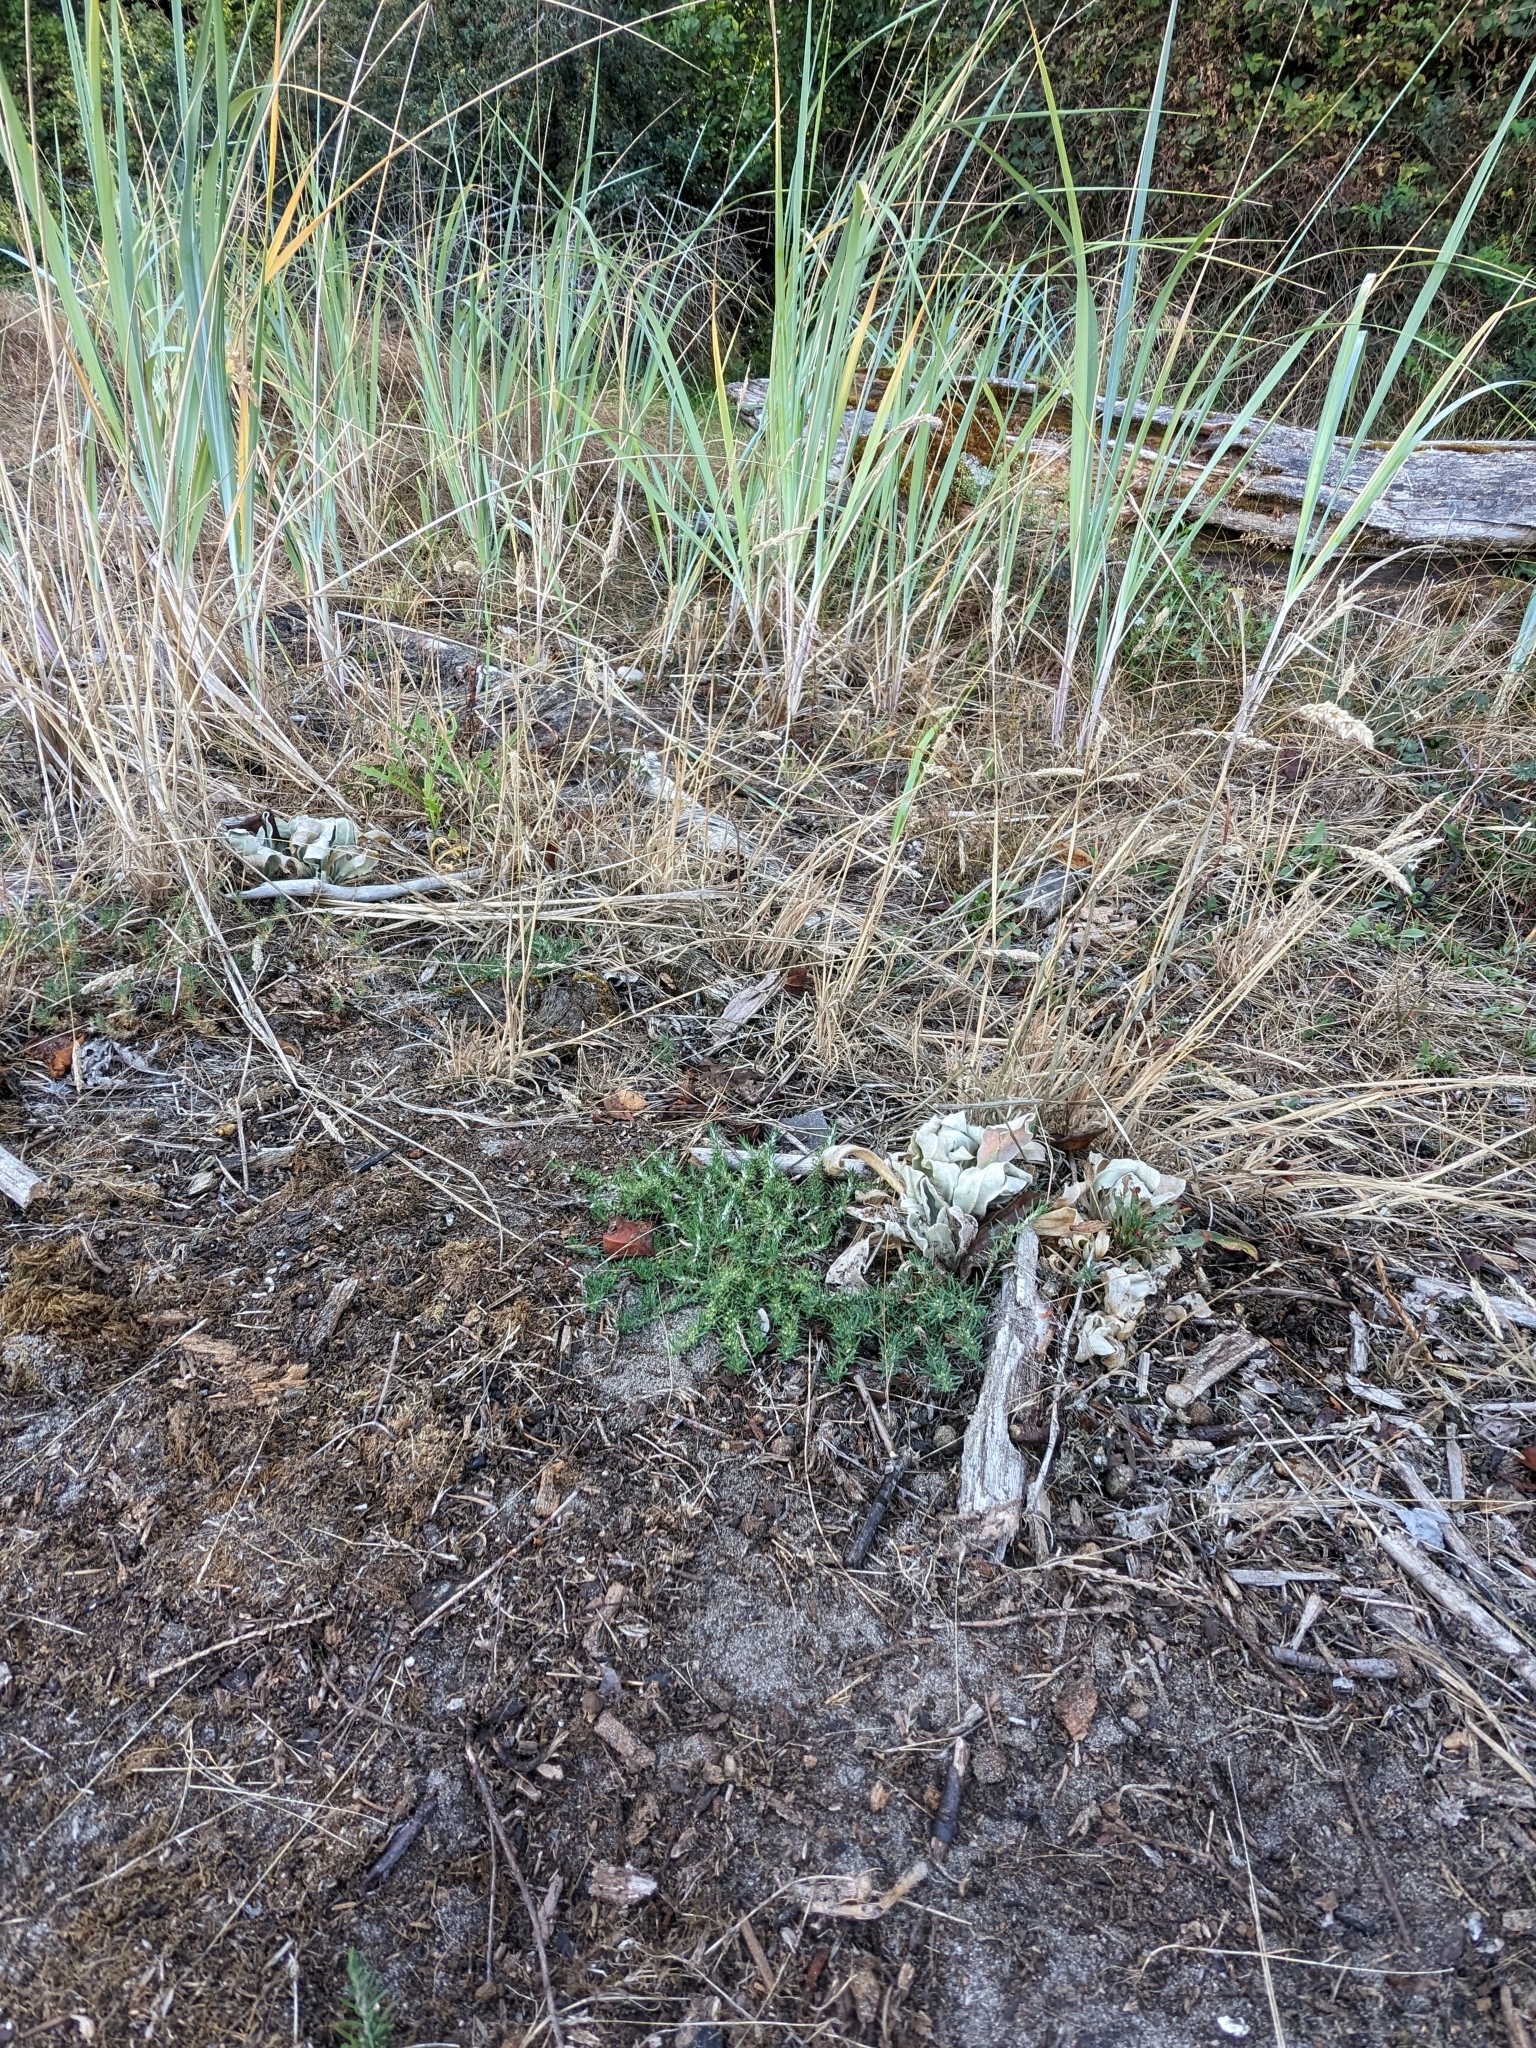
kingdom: Plantae
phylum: Tracheophyta
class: Magnoliopsida
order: Caryophyllales
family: Caryophyllaceae
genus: Cardionema
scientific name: Cardionema ramosissima
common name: Sandcarpet
